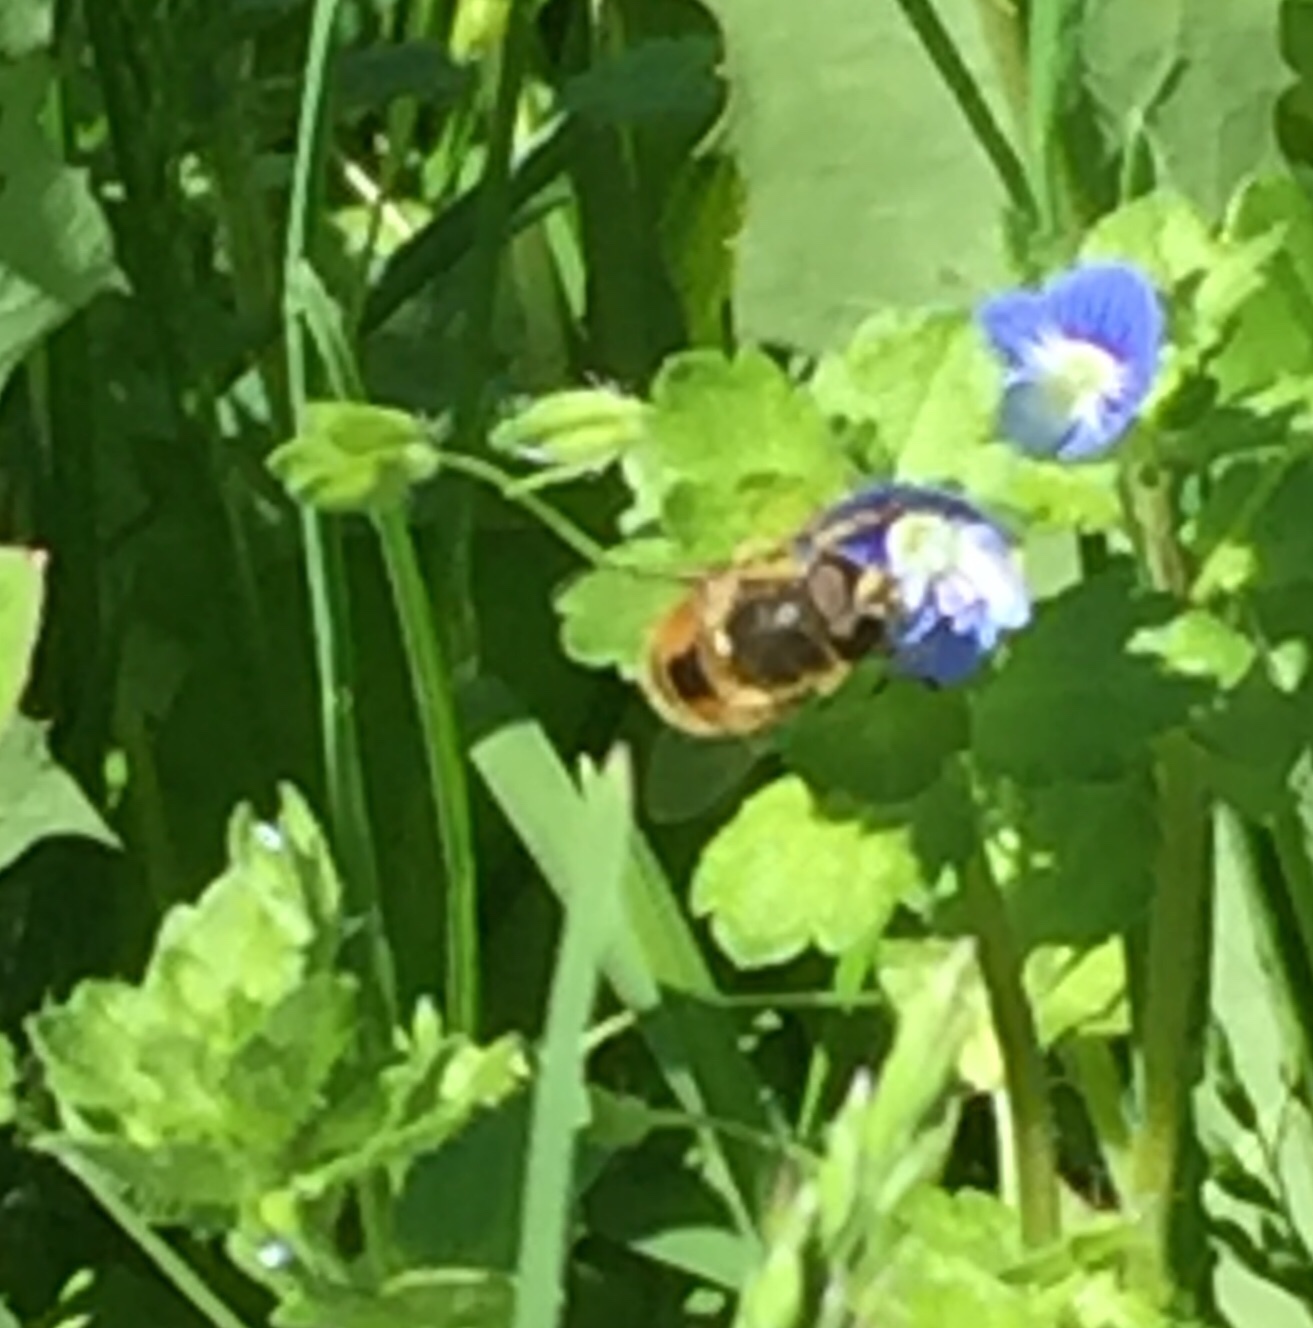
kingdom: Animalia
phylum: Arthropoda
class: Insecta
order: Diptera
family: Syrphidae
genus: Eristalis
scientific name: Eristalis arbustorum
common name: Hover fly
